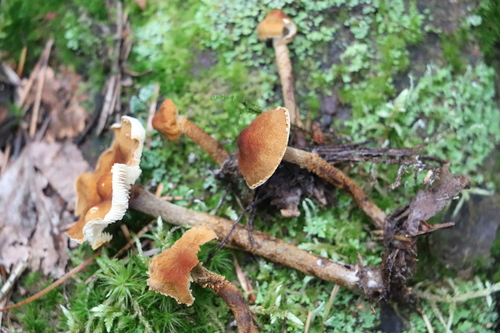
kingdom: Fungi
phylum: Basidiomycota
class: Agaricomycetes
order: Agaricales
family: Tricholomataceae
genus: Cystoderma
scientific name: Cystoderma jasonis
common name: Pine powdercap
